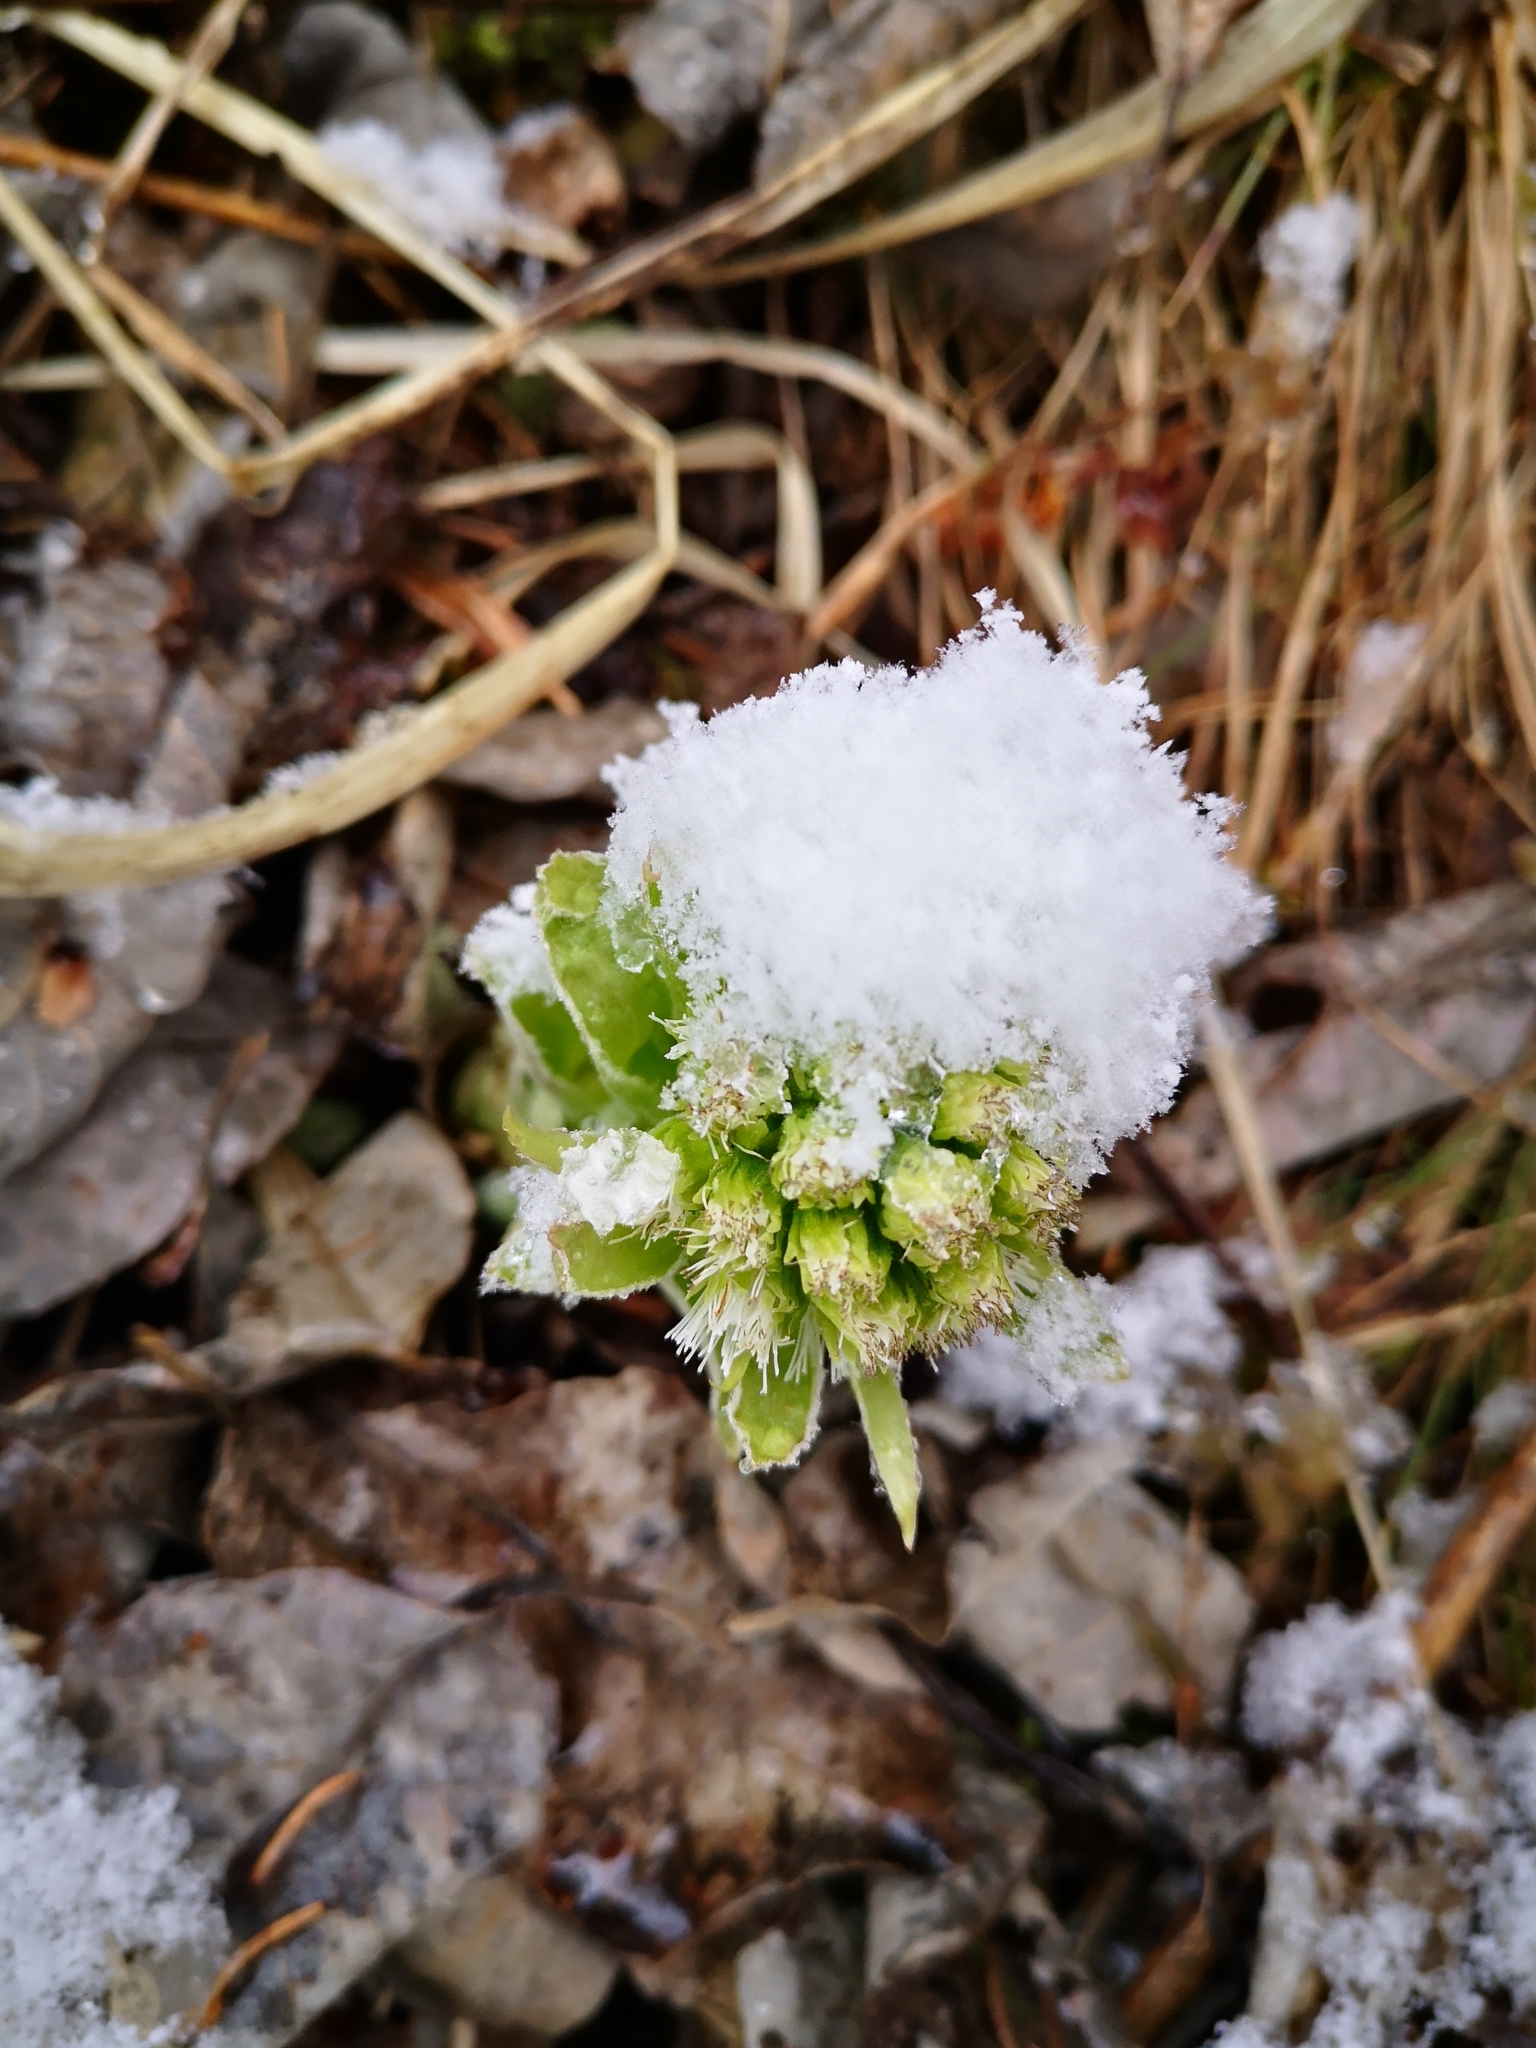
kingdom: Plantae
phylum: Tracheophyta
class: Magnoliopsida
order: Asterales
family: Asteraceae
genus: Petasites
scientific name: Petasites albus
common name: White butterbur
